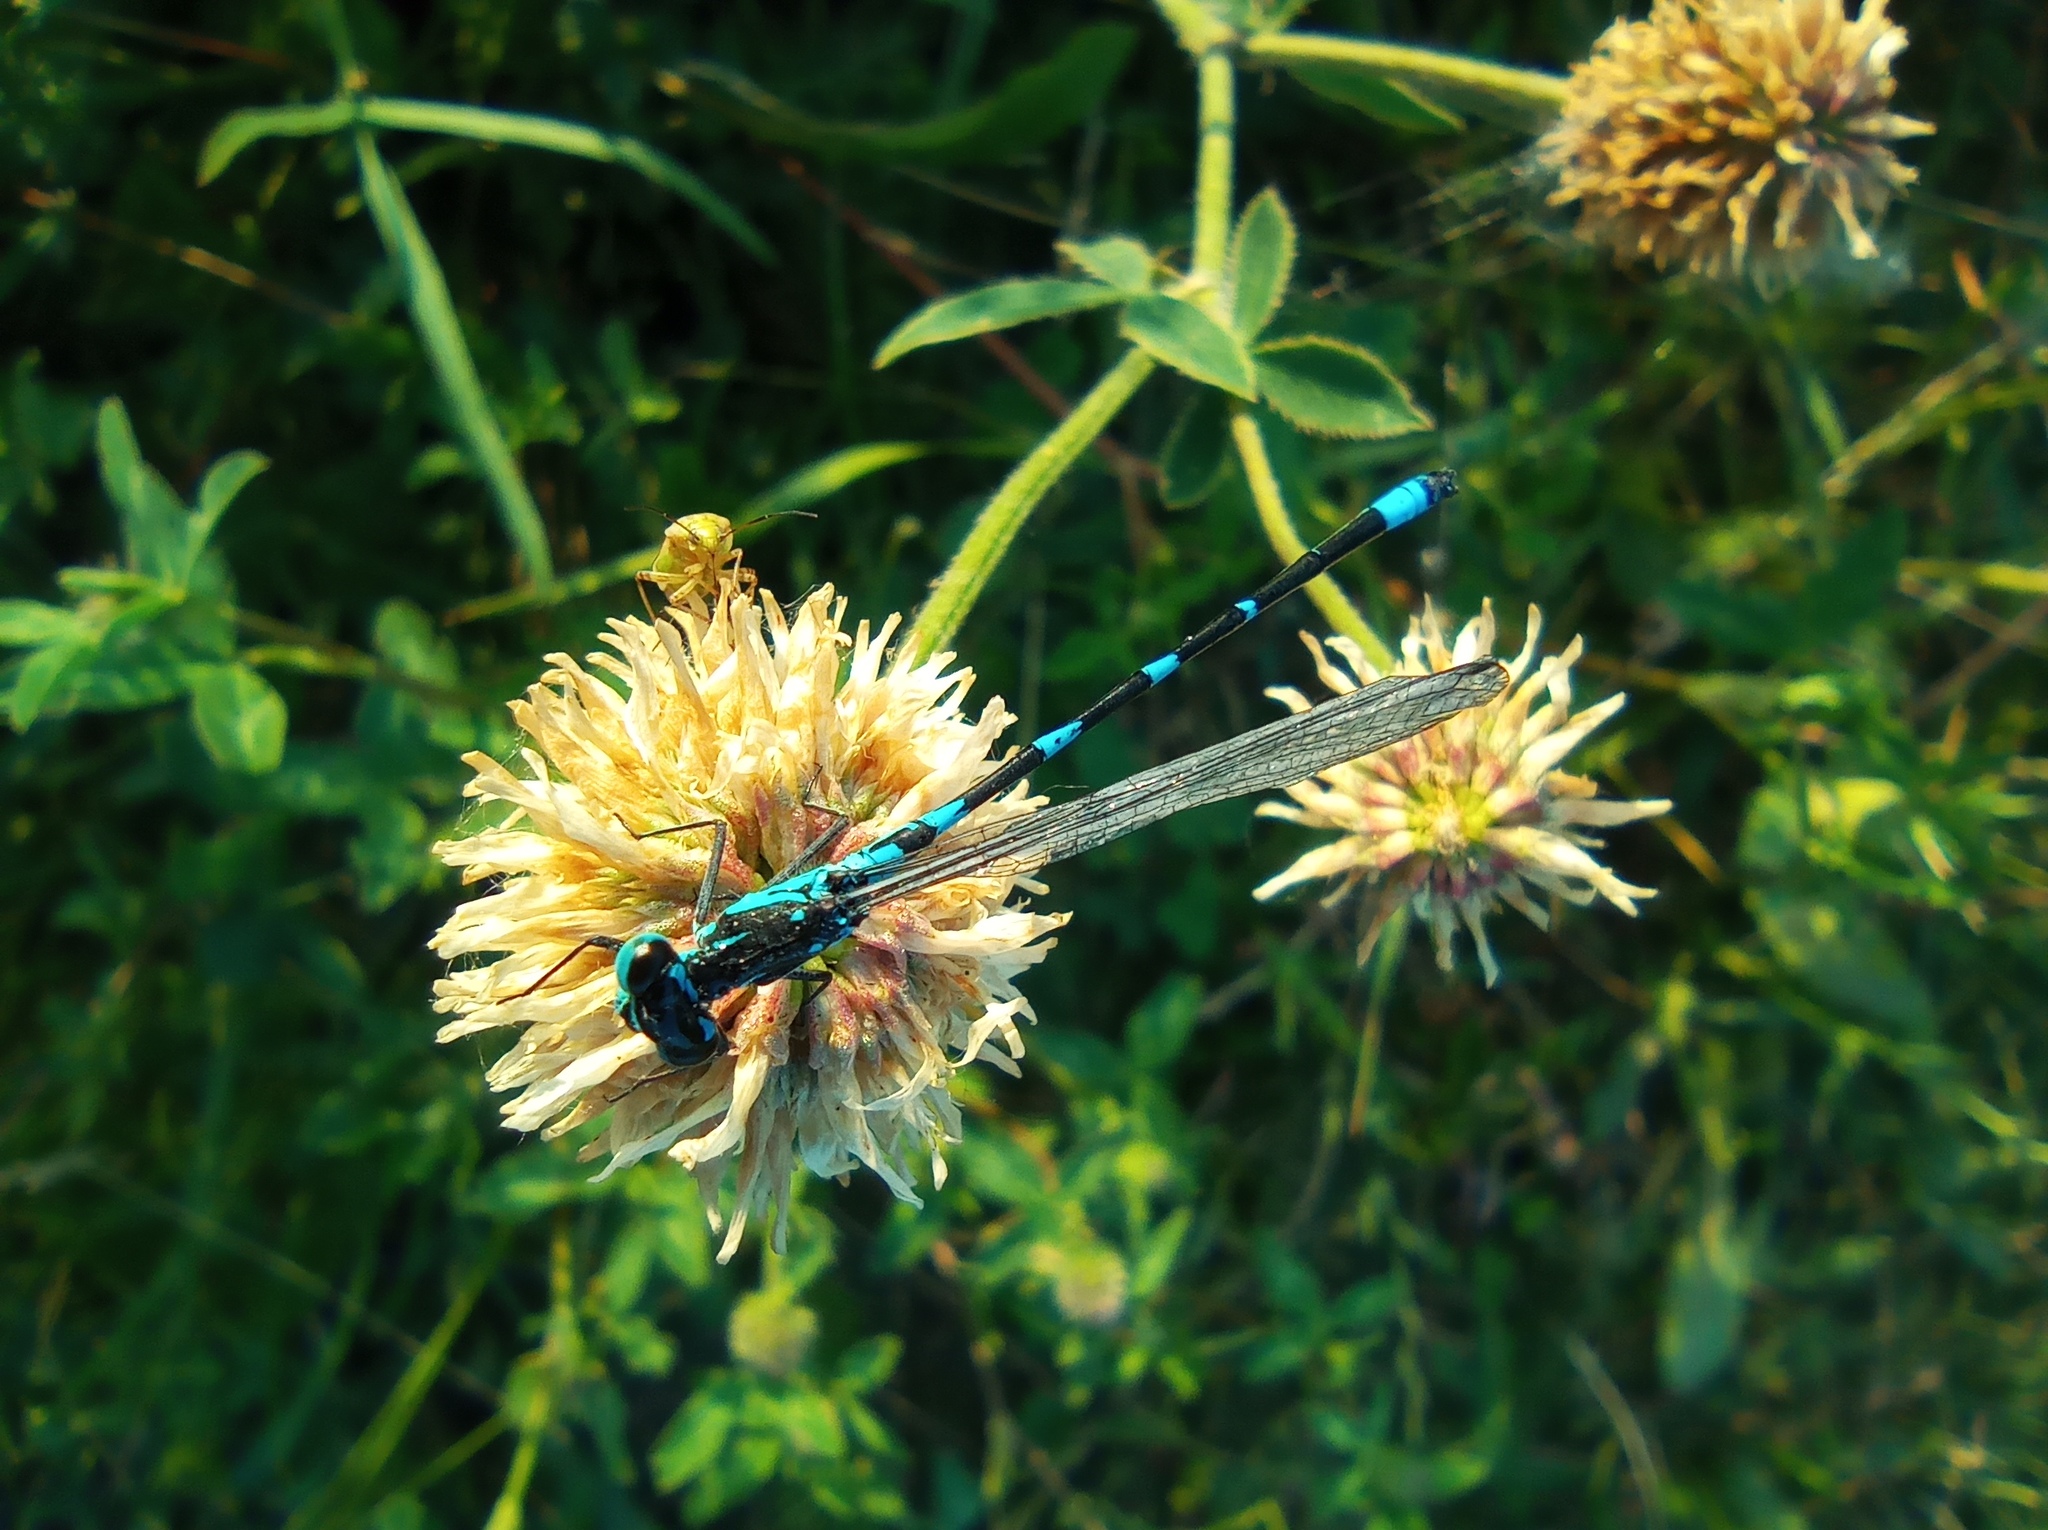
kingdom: Animalia
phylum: Arthropoda
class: Insecta
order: Odonata
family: Coenagrionidae
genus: Coenagrion
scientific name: Coenagrion pulchellum
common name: Variable bluet
